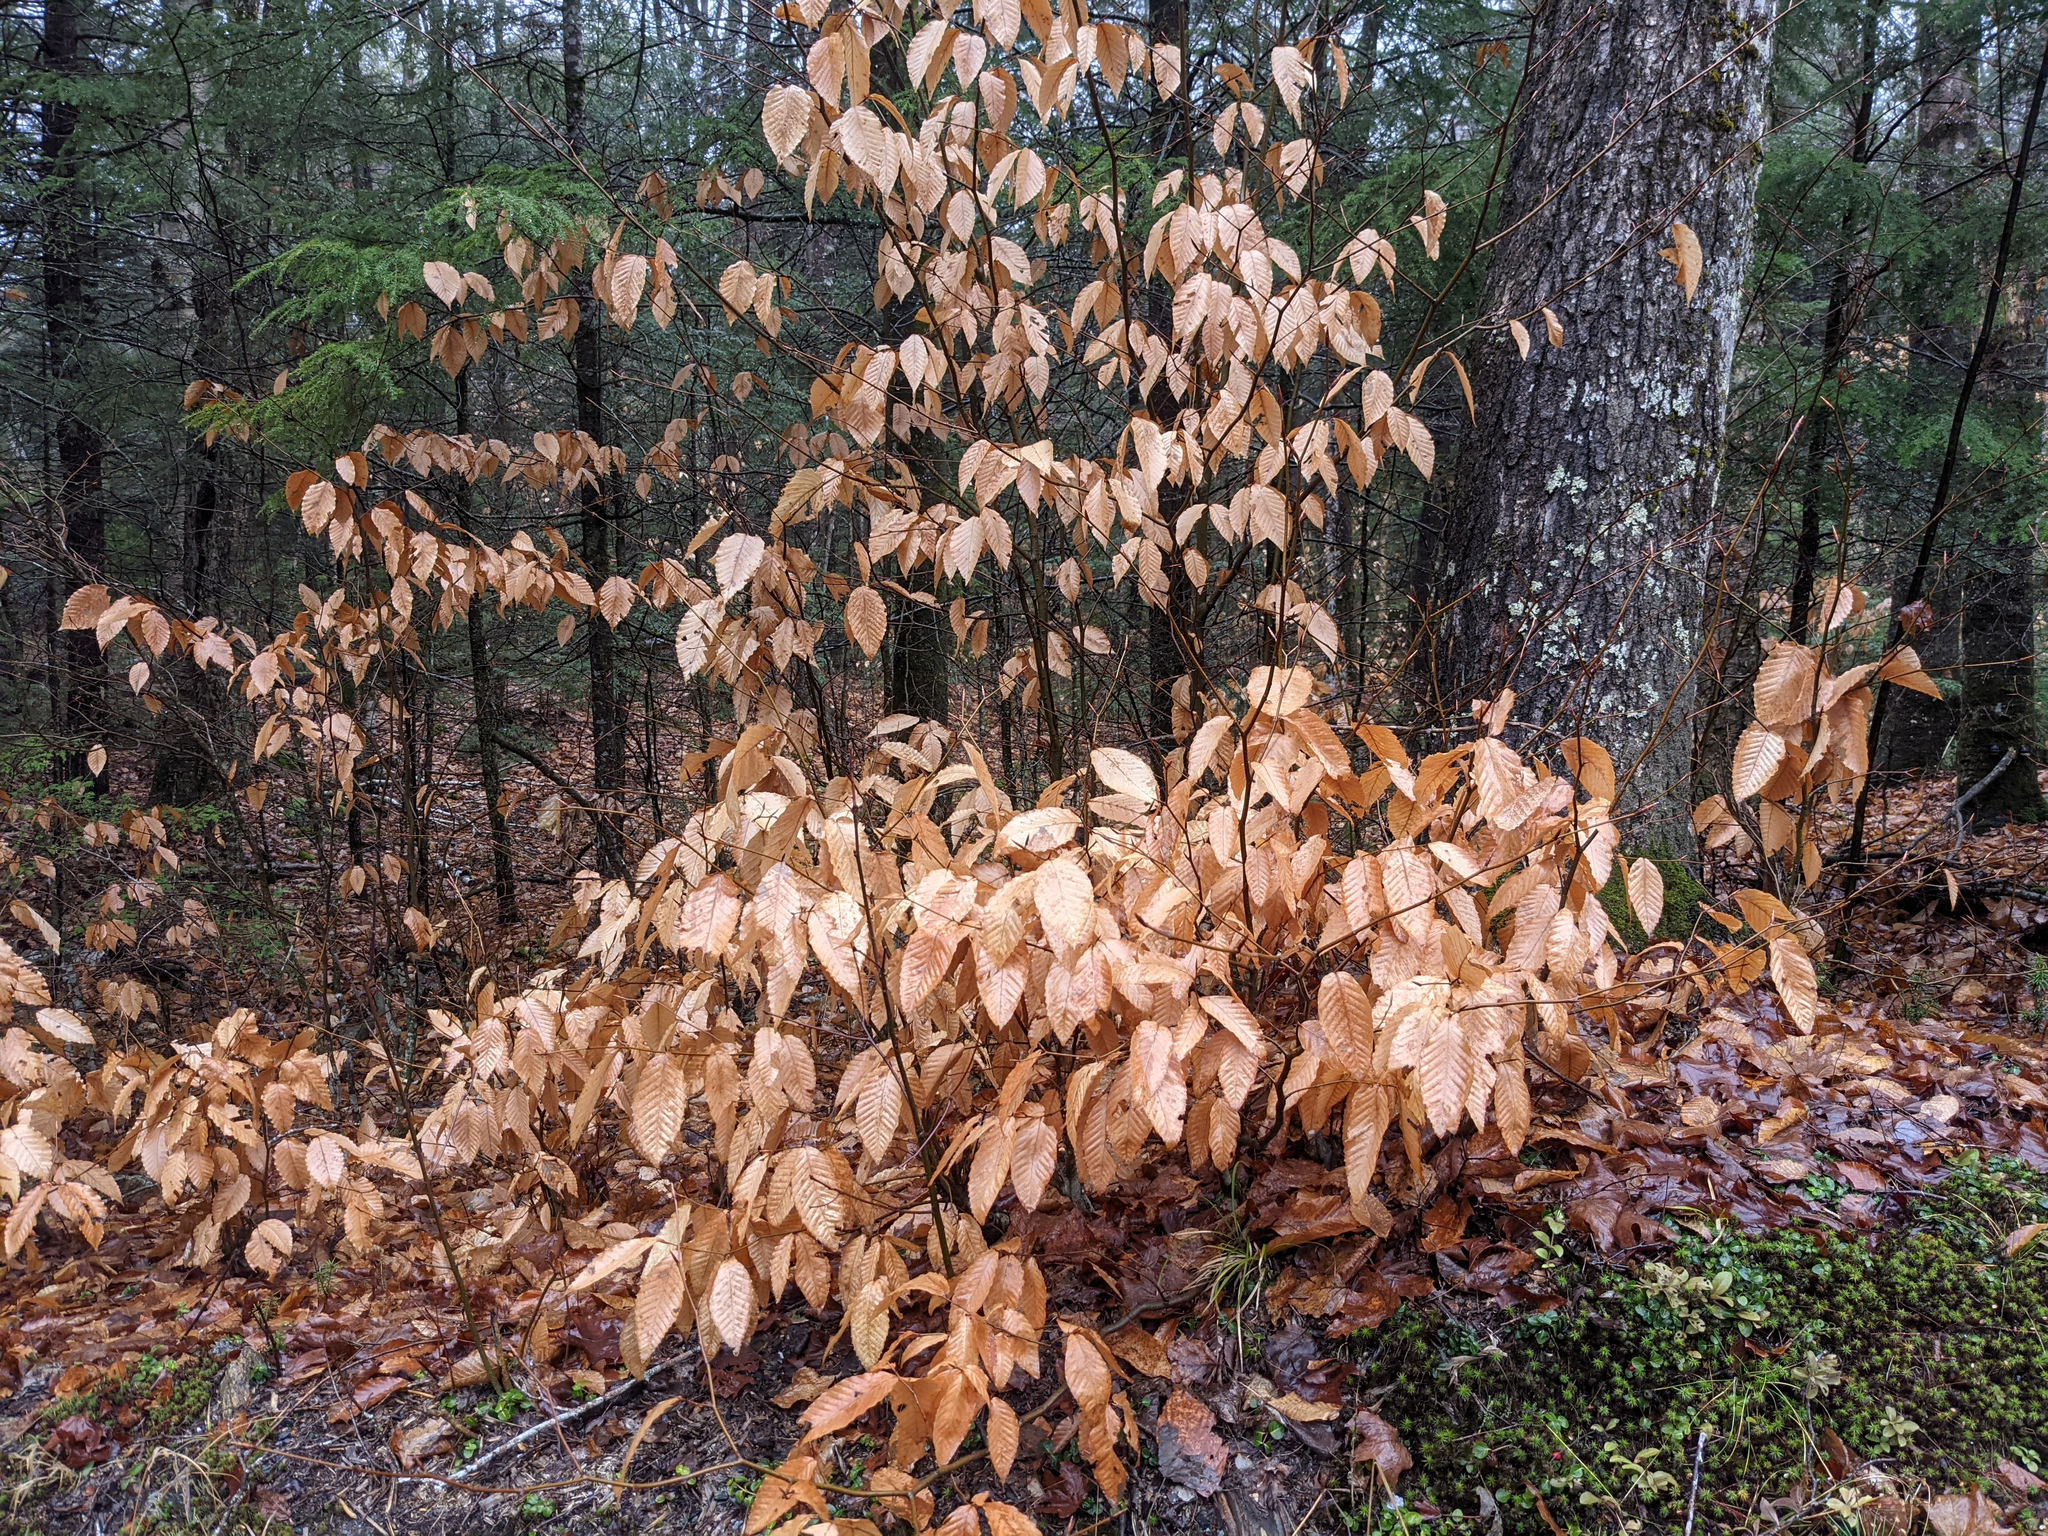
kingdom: Plantae
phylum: Tracheophyta
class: Magnoliopsida
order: Fagales
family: Fagaceae
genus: Fagus
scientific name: Fagus grandifolia
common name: American beech
